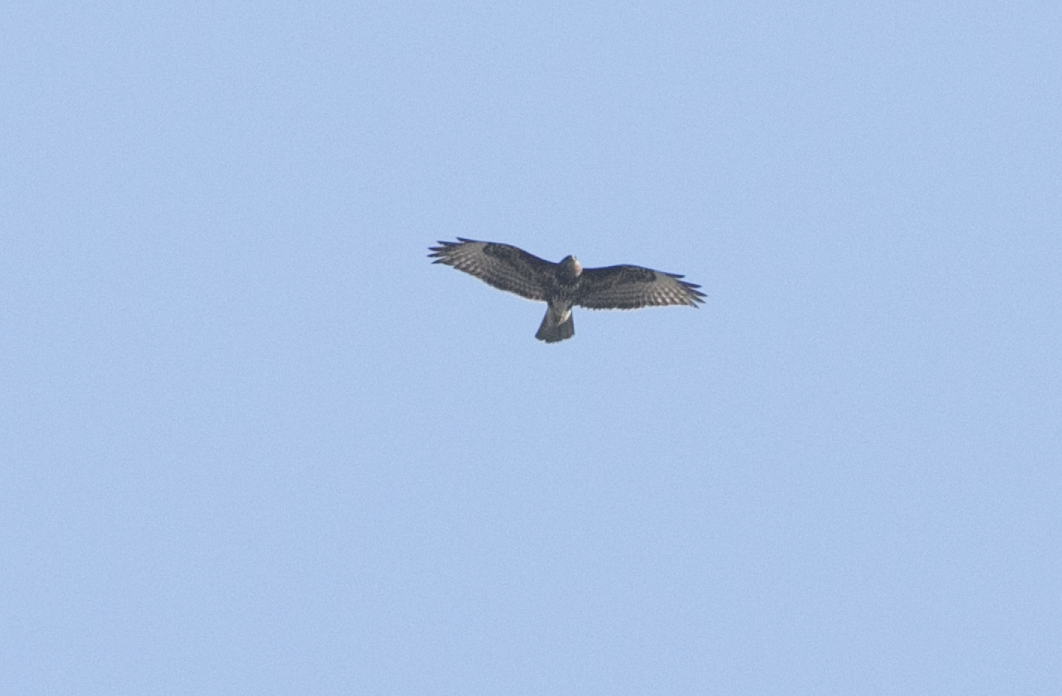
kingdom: Animalia
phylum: Chordata
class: Aves
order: Accipitriformes
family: Accipitridae
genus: Buteo
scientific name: Buteo buteo
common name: Common buzzard
